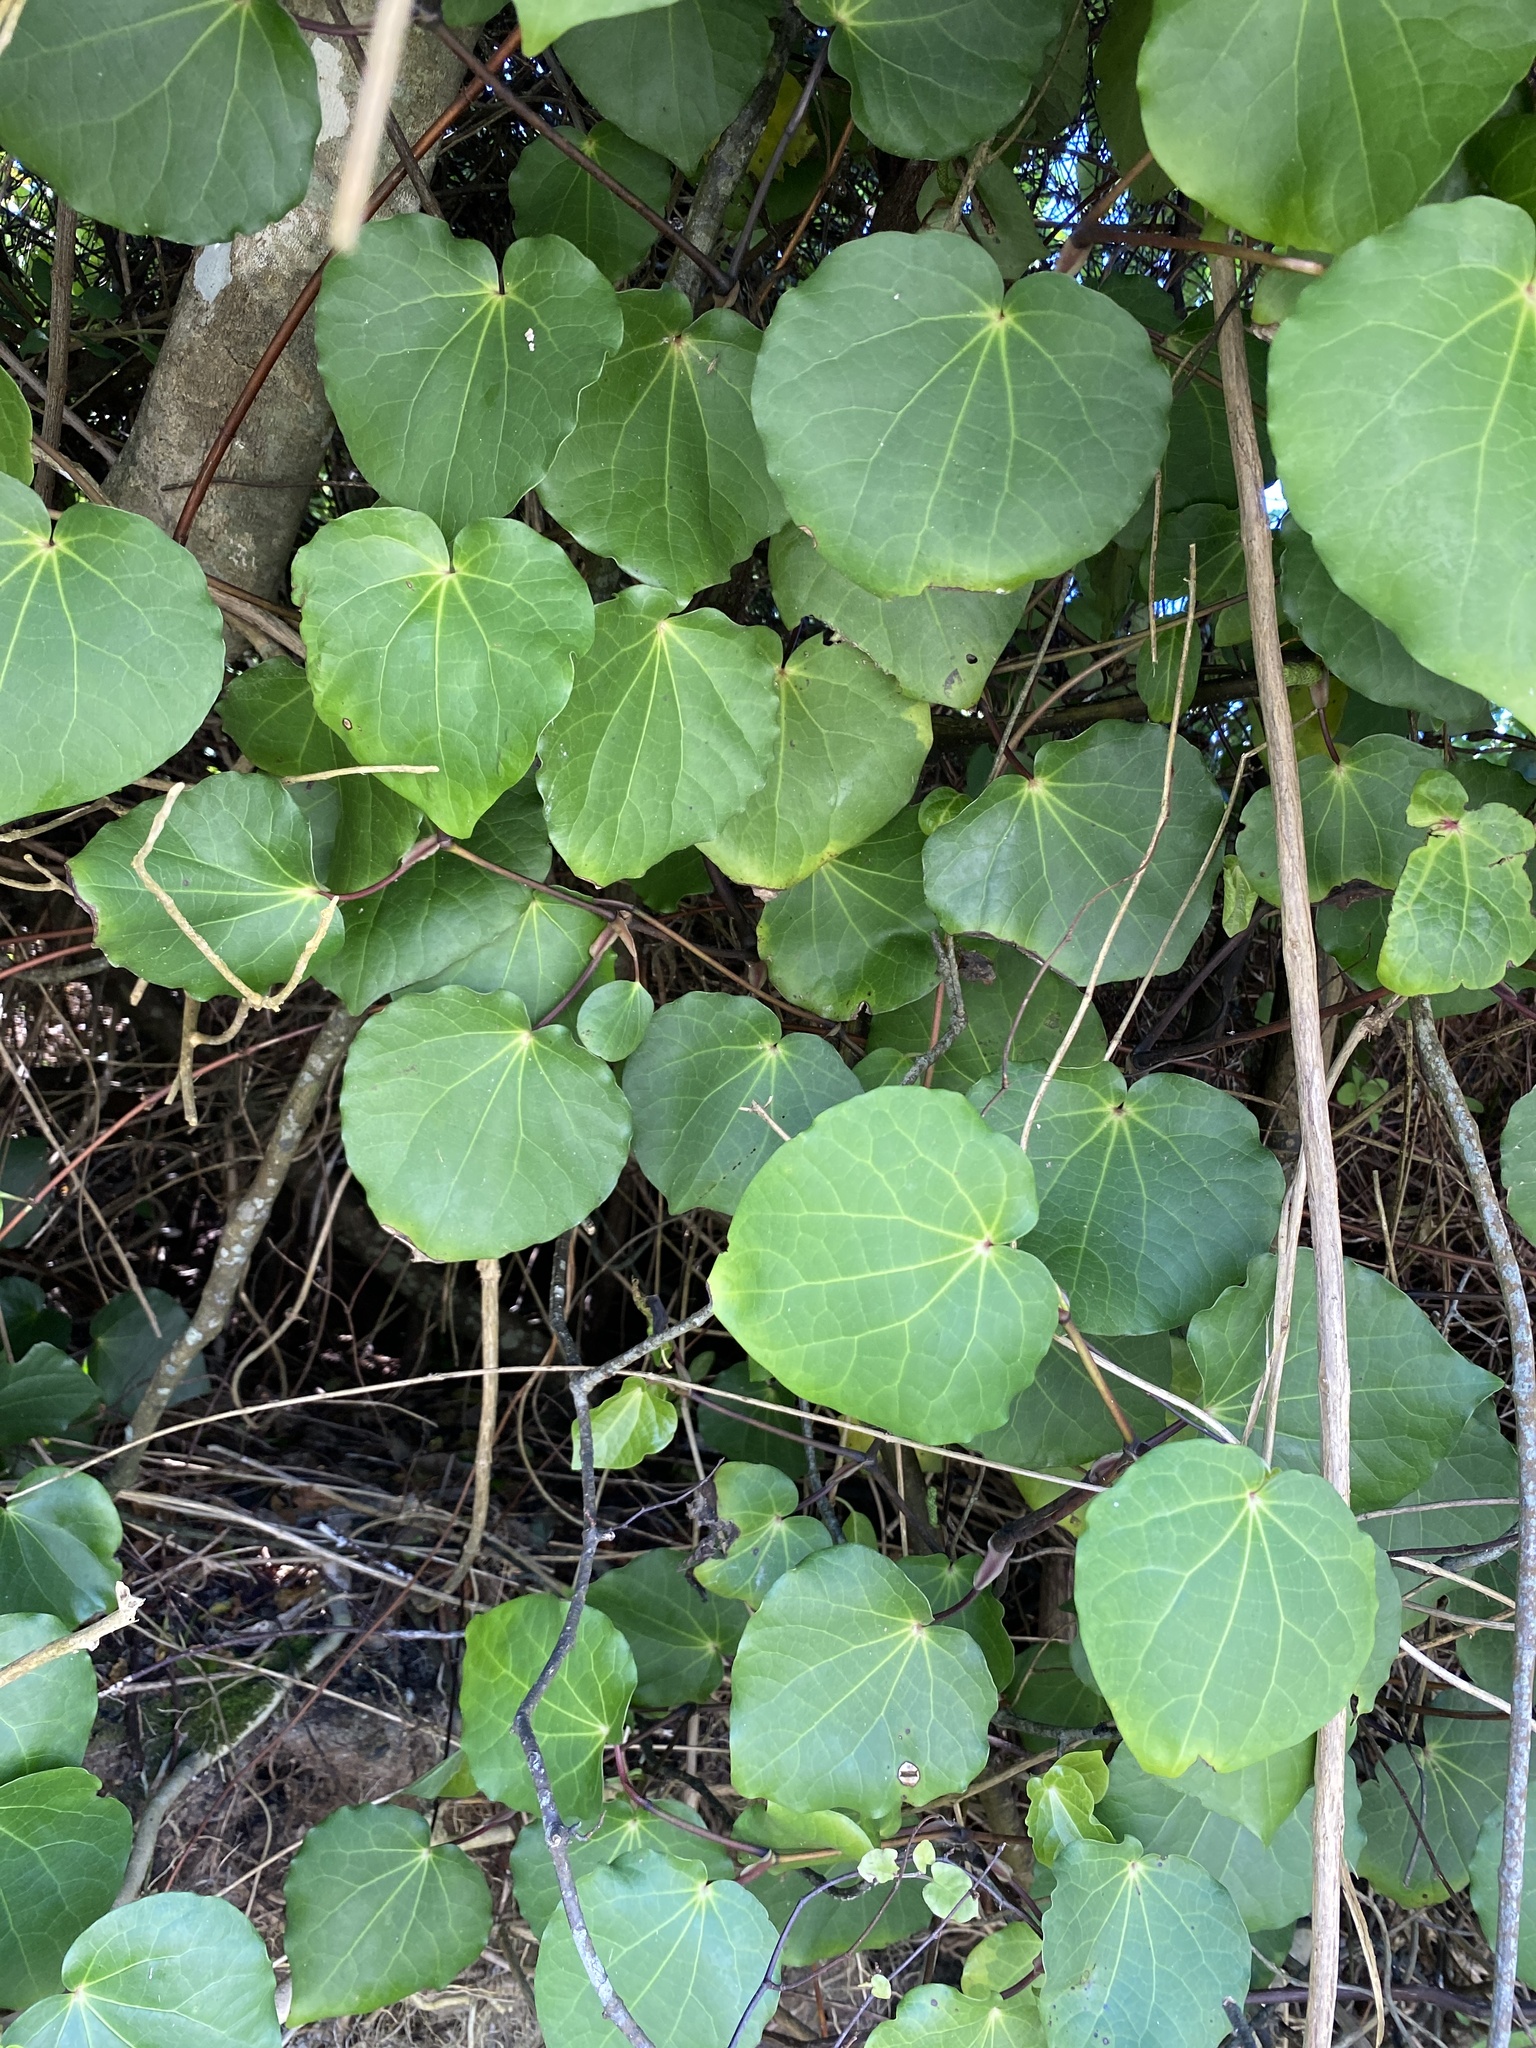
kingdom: Plantae
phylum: Tracheophyta
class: Magnoliopsida
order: Piperales
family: Piperaceae
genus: Macropiper
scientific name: Macropiper excelsum
